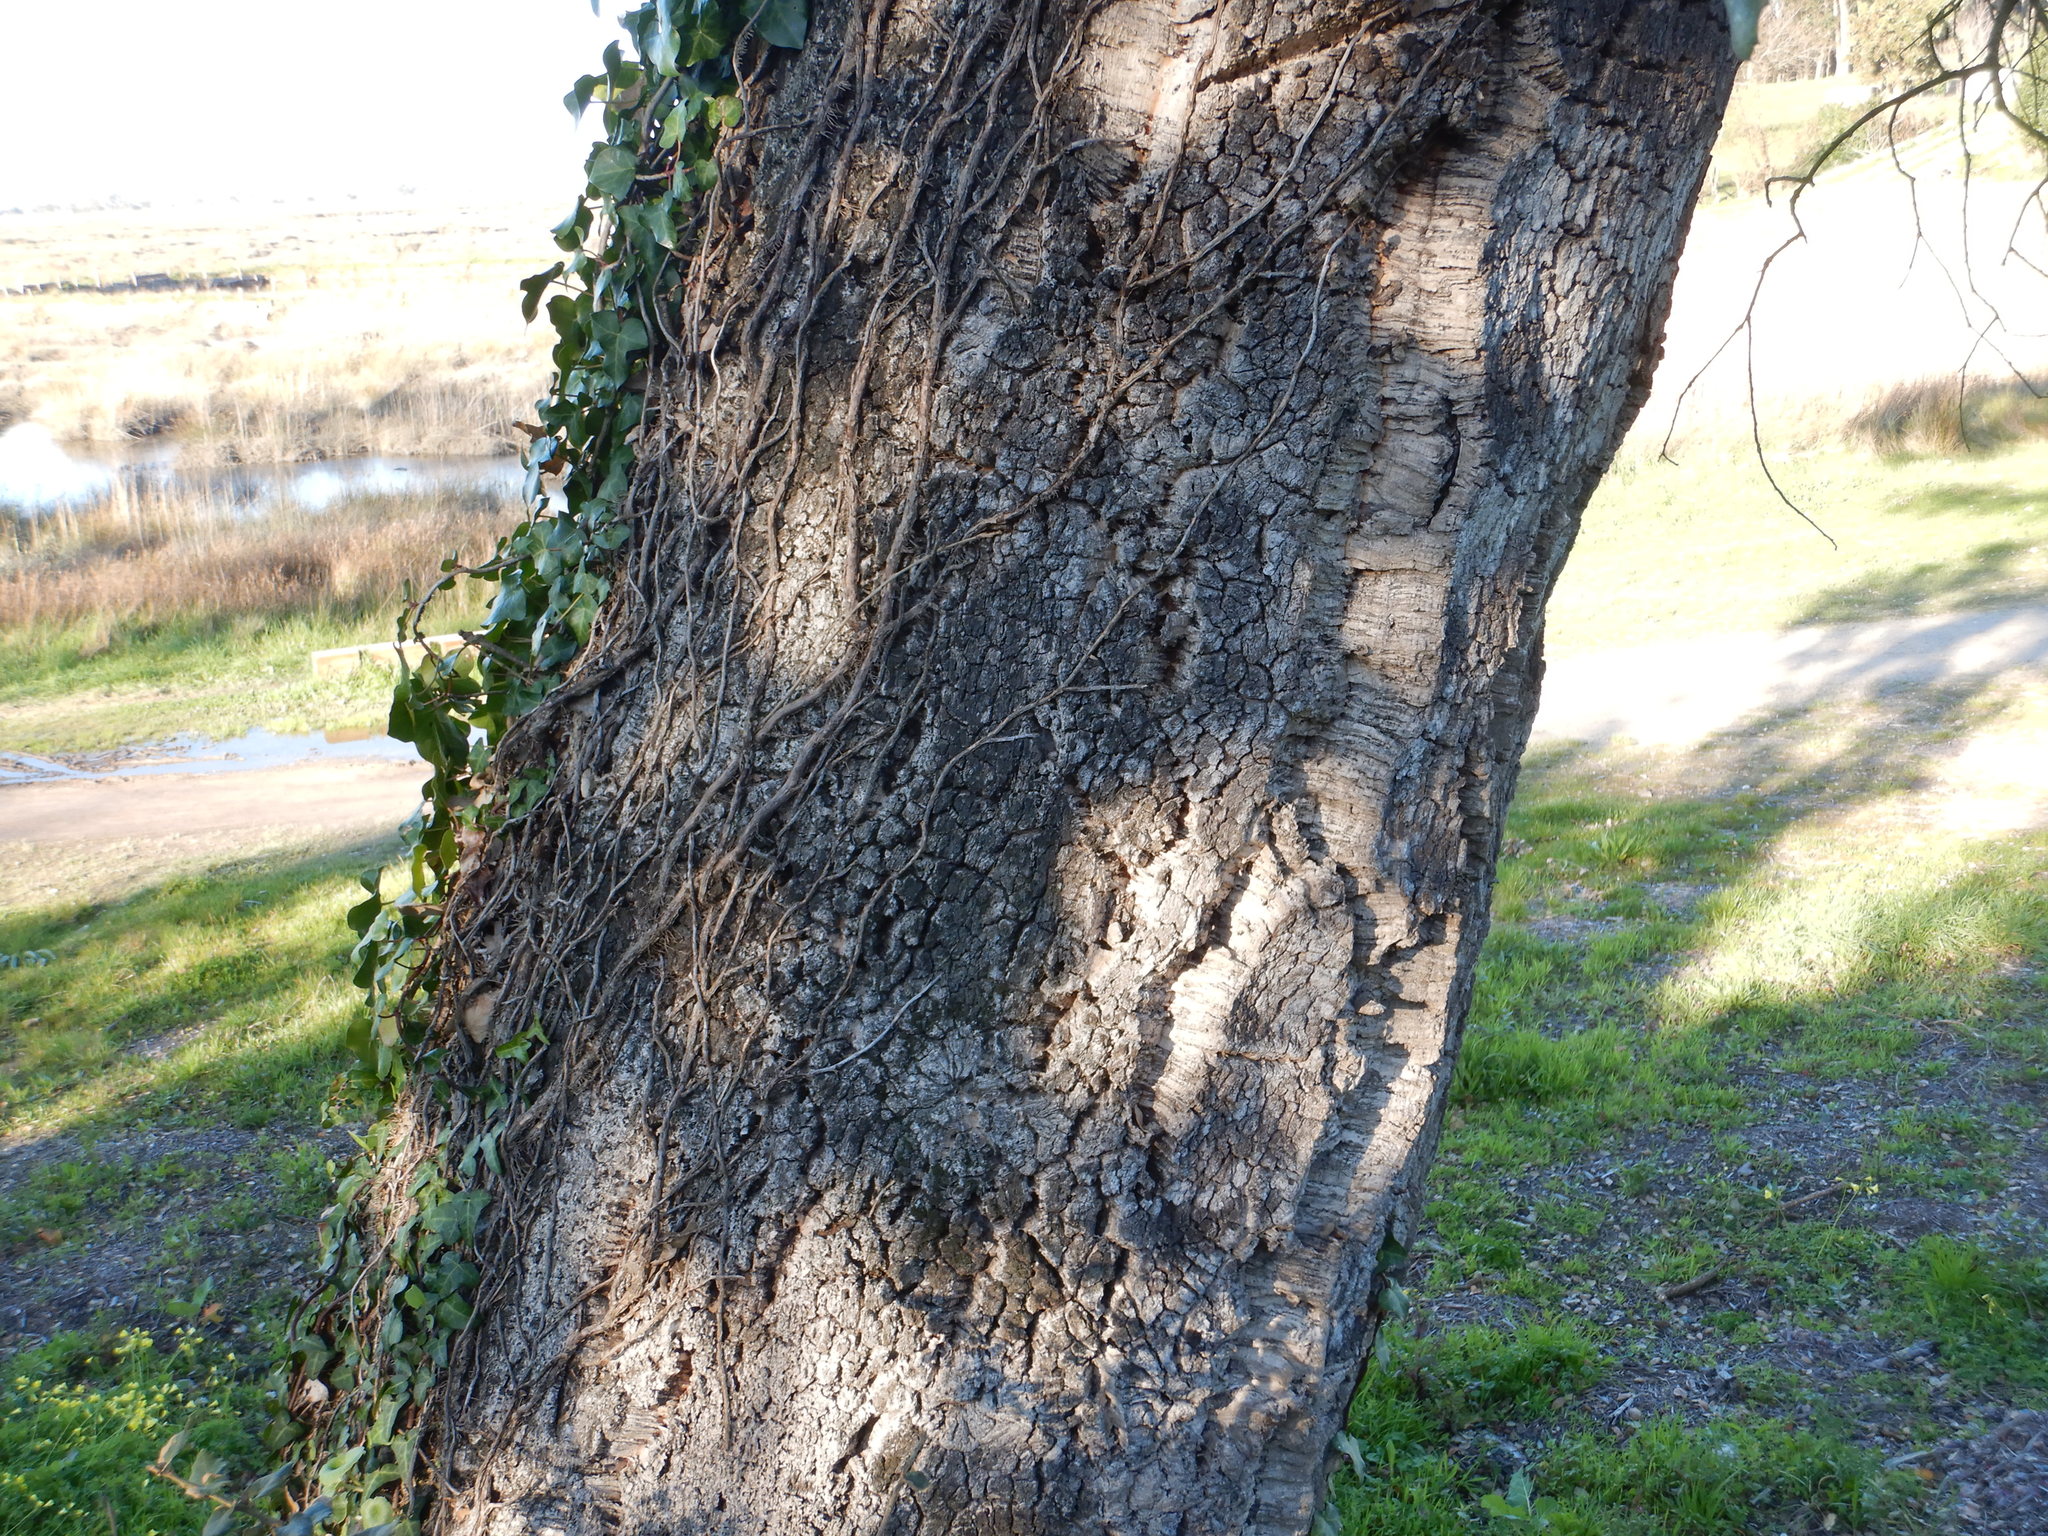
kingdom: Plantae
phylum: Tracheophyta
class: Magnoliopsida
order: Fagales
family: Fagaceae
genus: Quercus
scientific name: Quercus suber
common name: Cork oak
